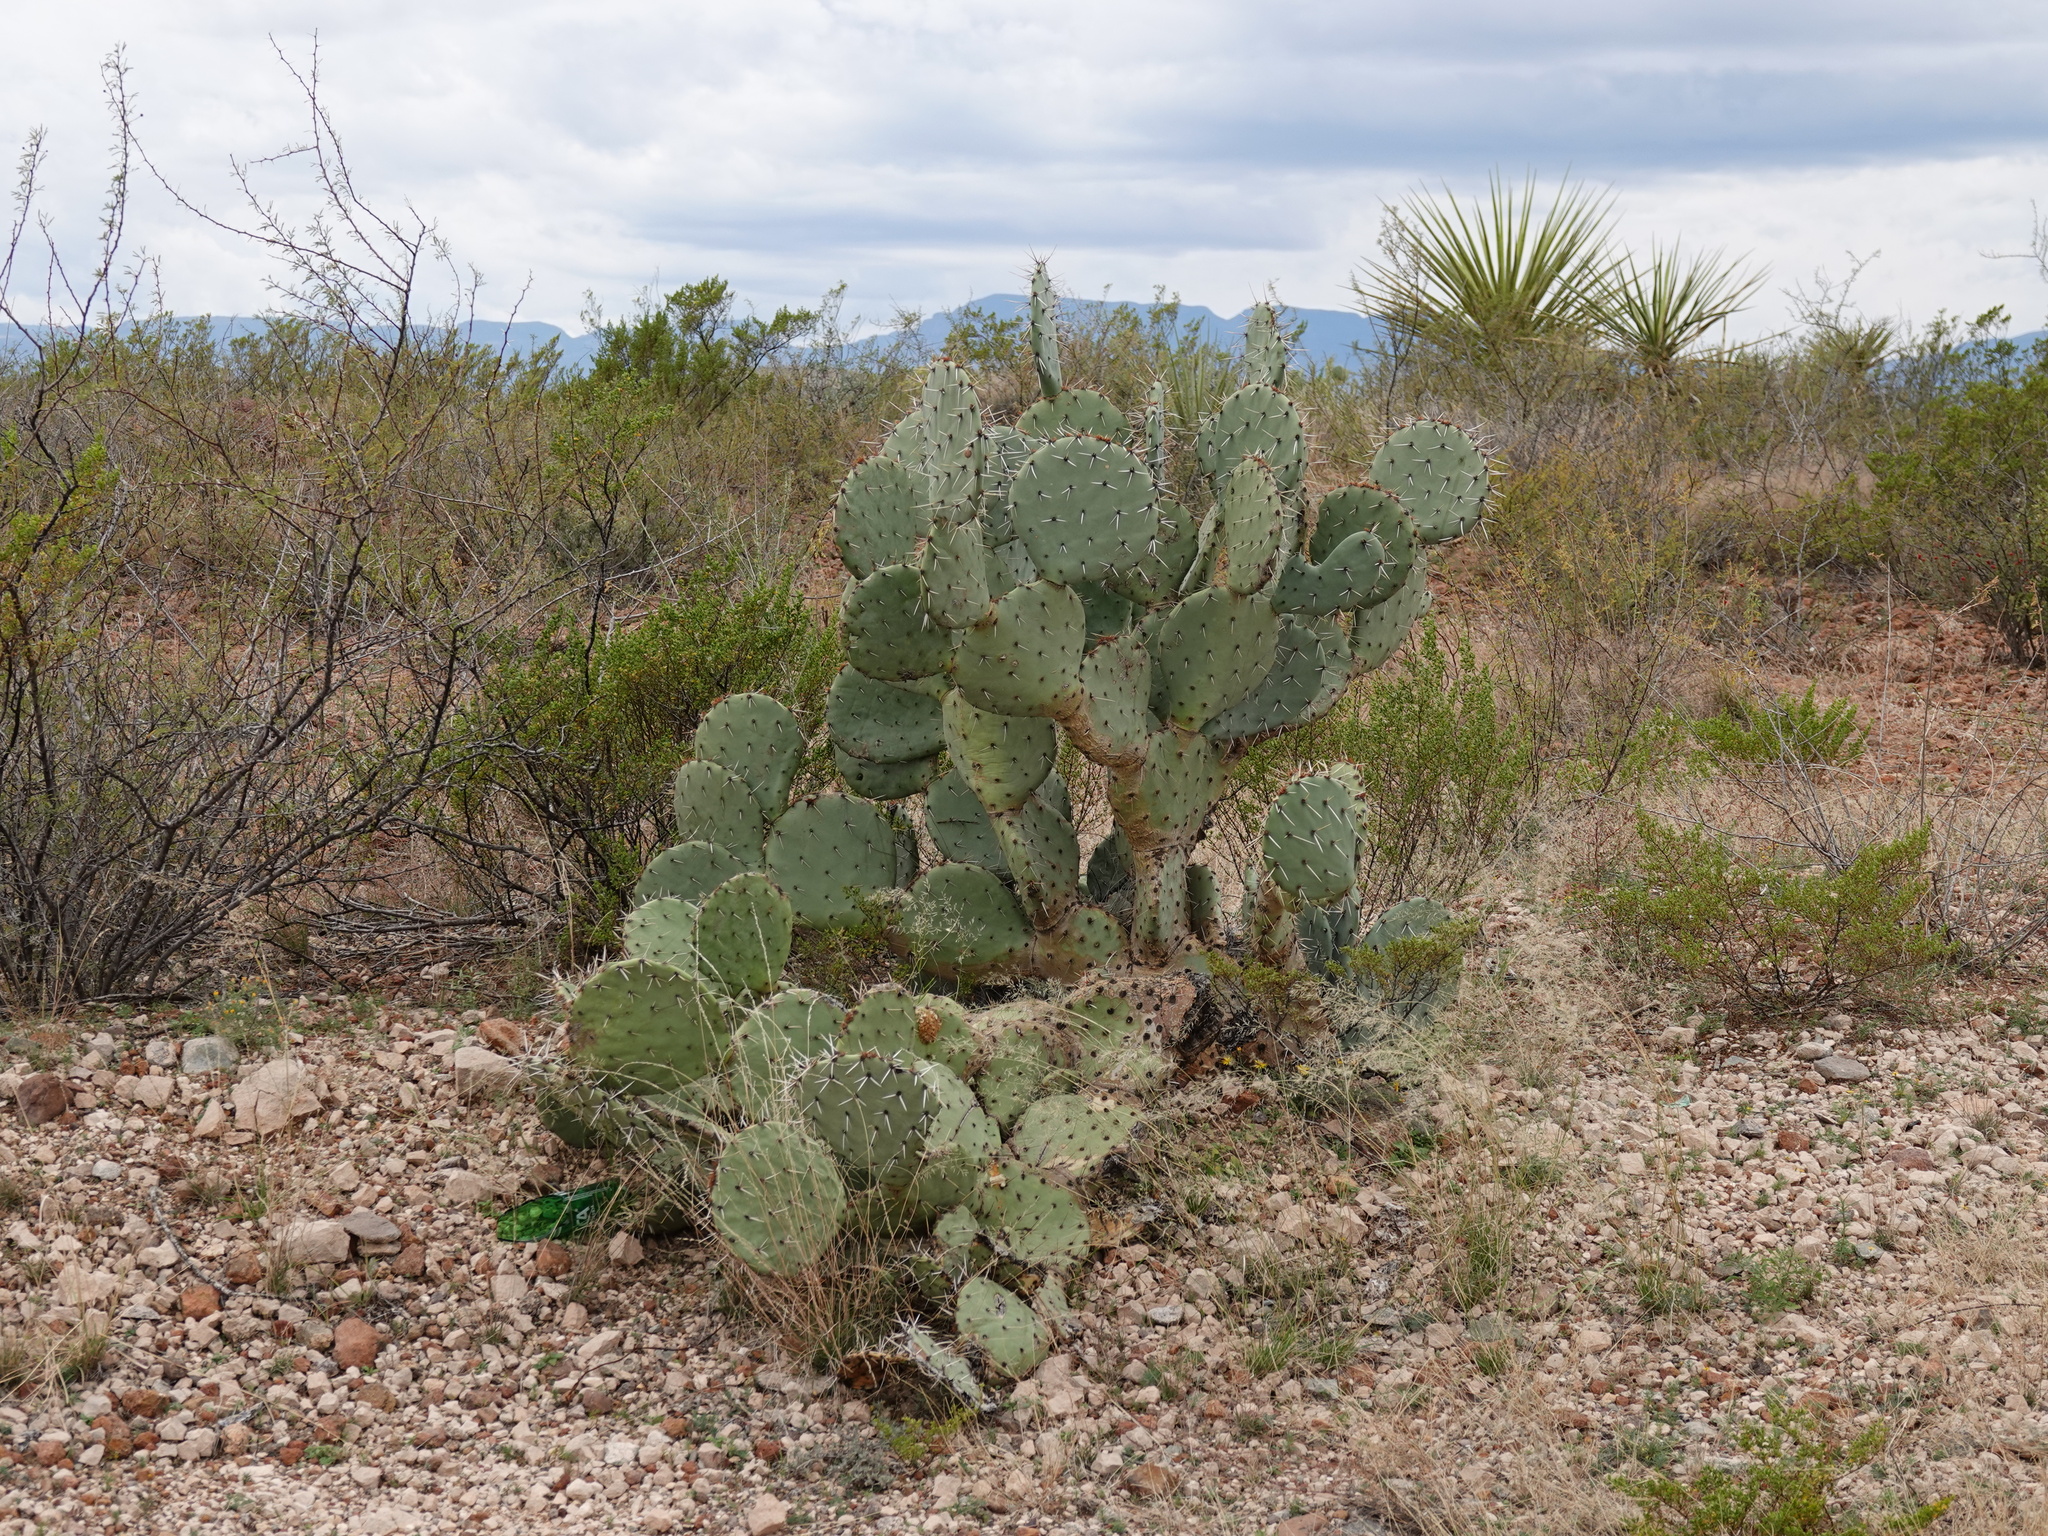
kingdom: Plantae
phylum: Tracheophyta
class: Magnoliopsida
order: Caryophyllales
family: Cactaceae
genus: Opuntia
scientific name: Opuntia engelmannii
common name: Cactus-apple
